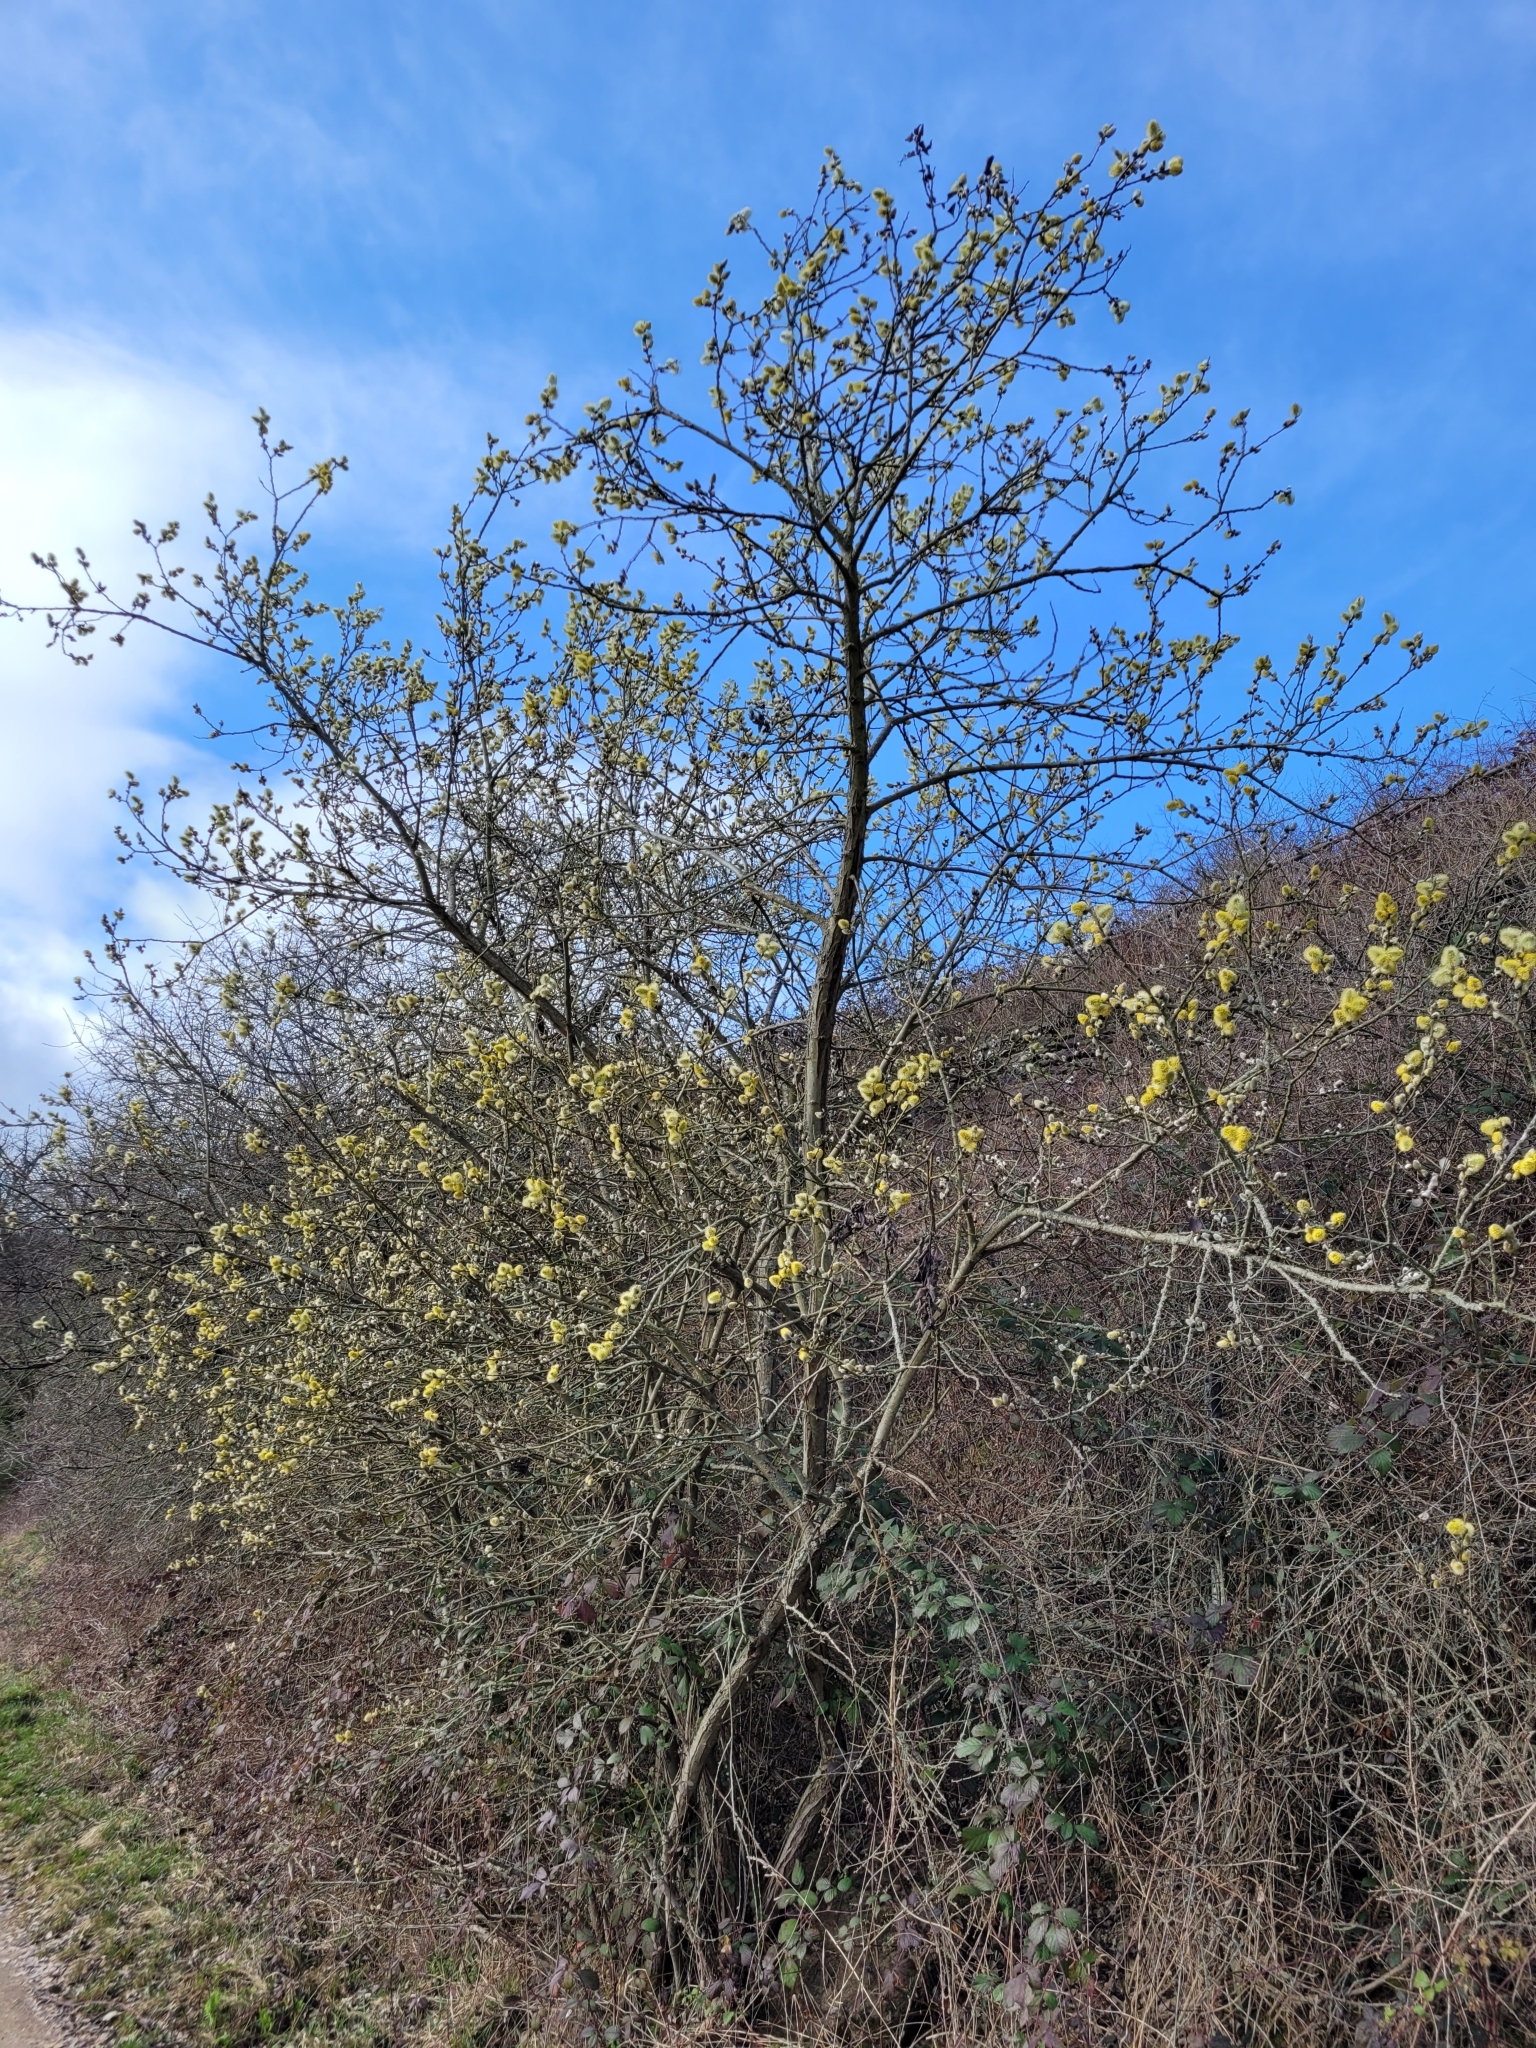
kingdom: Plantae
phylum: Tracheophyta
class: Magnoliopsida
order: Malpighiales
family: Salicaceae
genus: Salix
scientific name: Salix caprea
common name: Goat willow
